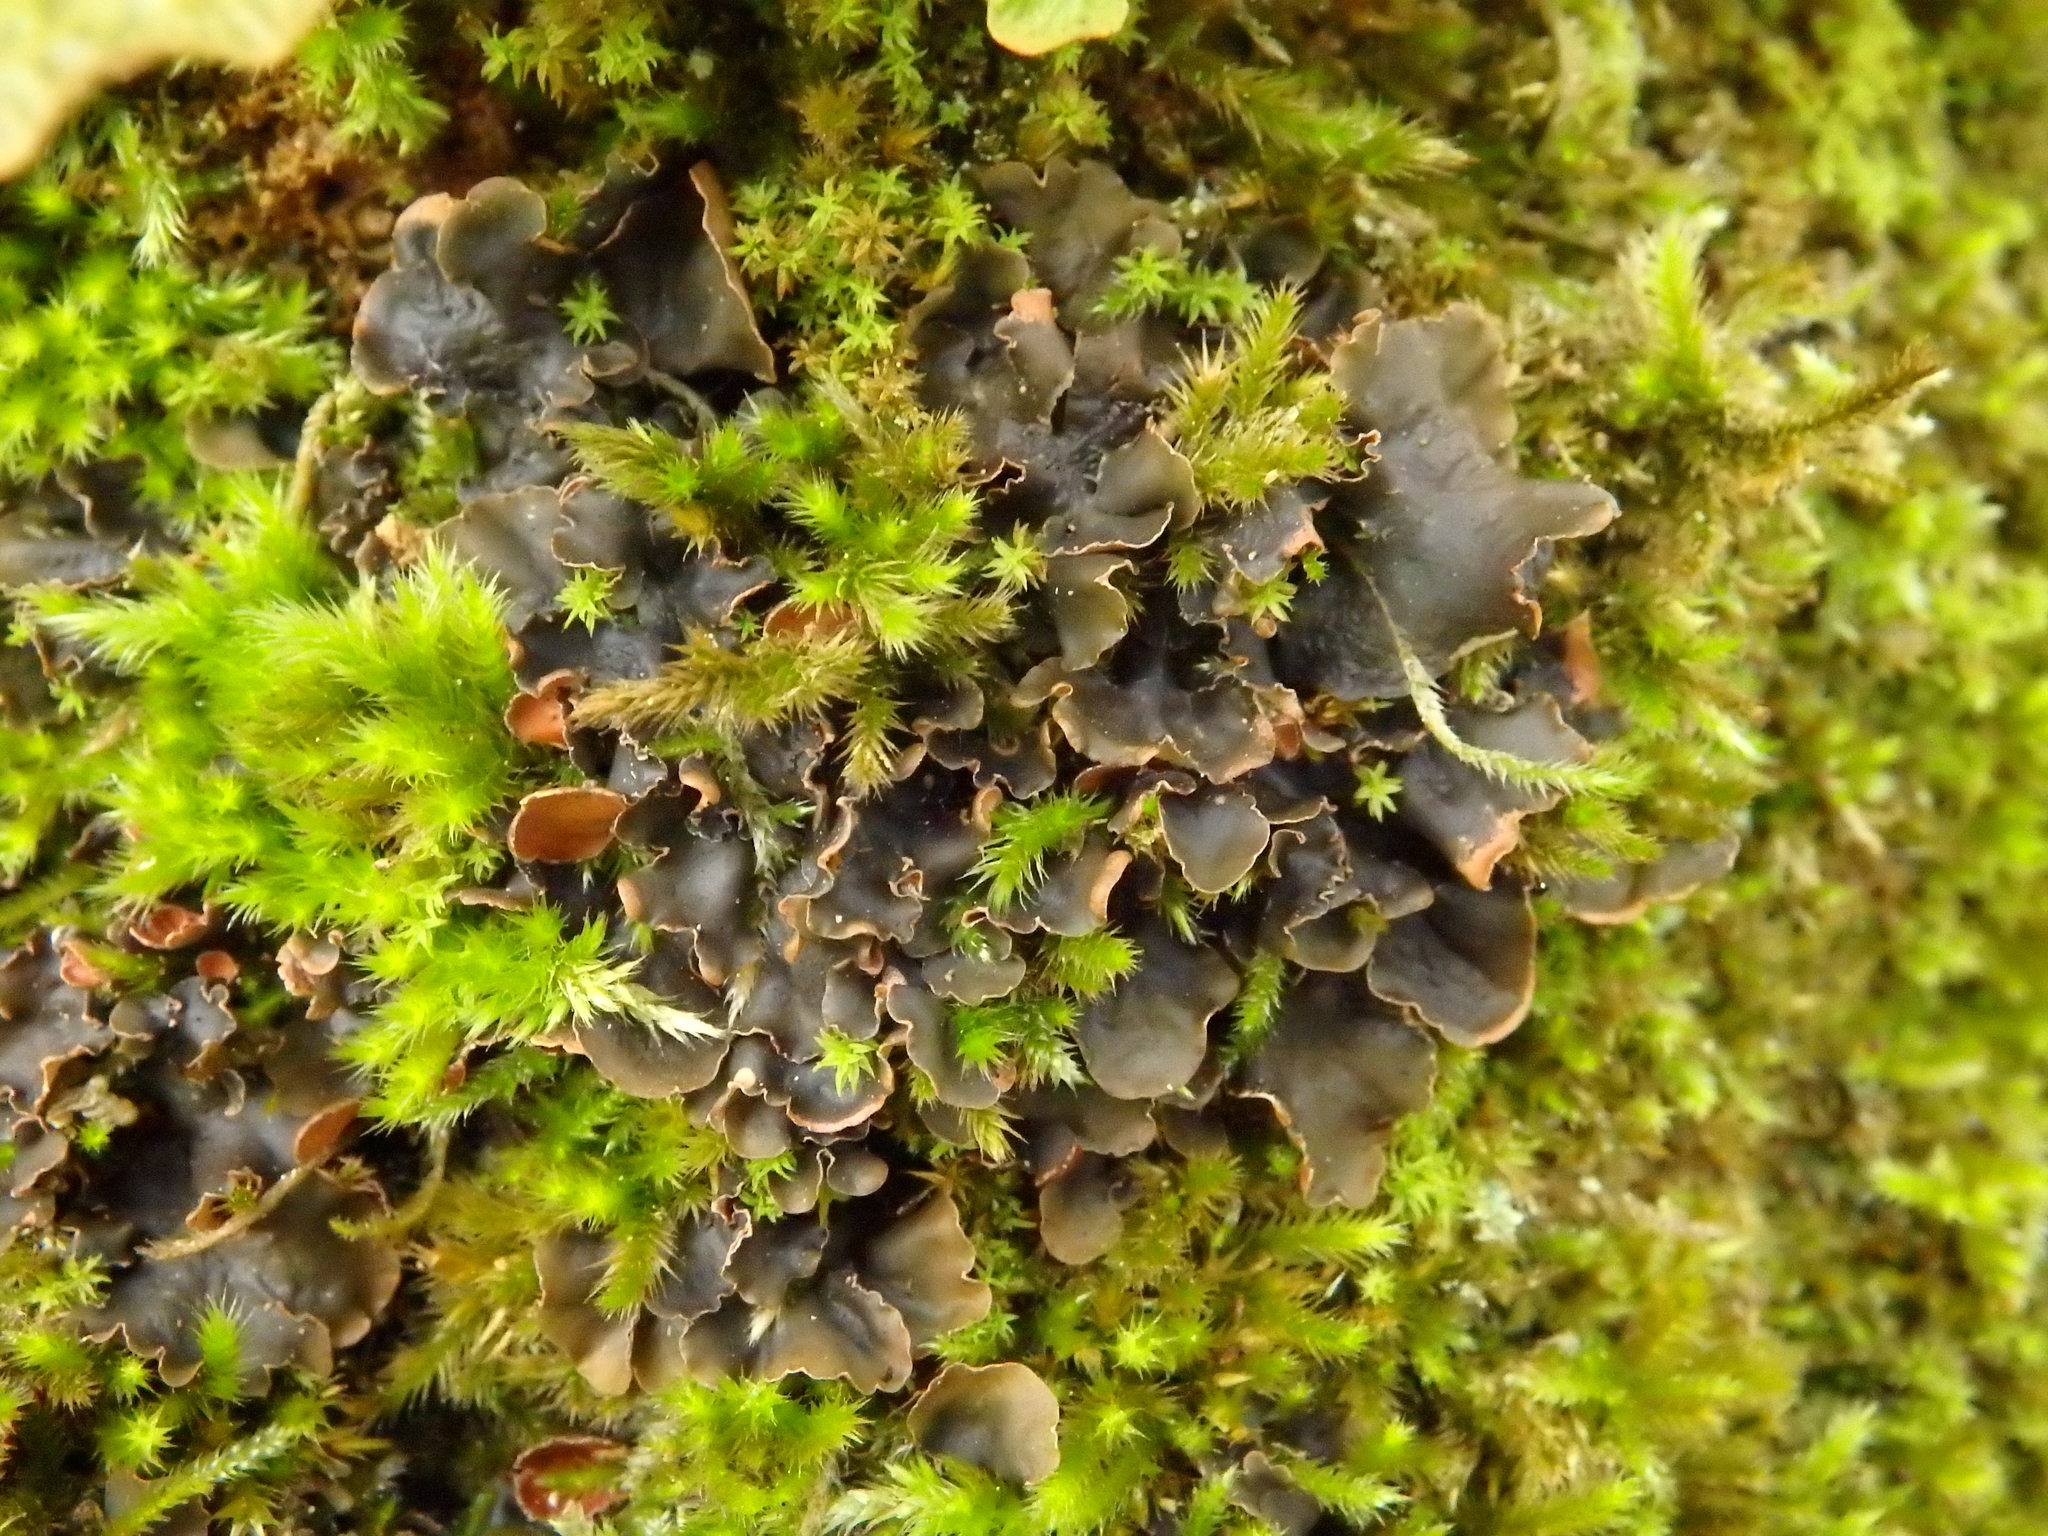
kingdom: Fungi
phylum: Ascomycota
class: Lecanoromycetes
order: Peltigerales
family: Peltigeraceae
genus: Peltigera
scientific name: Peltigera horizontalis
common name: Flat fruited pelt
